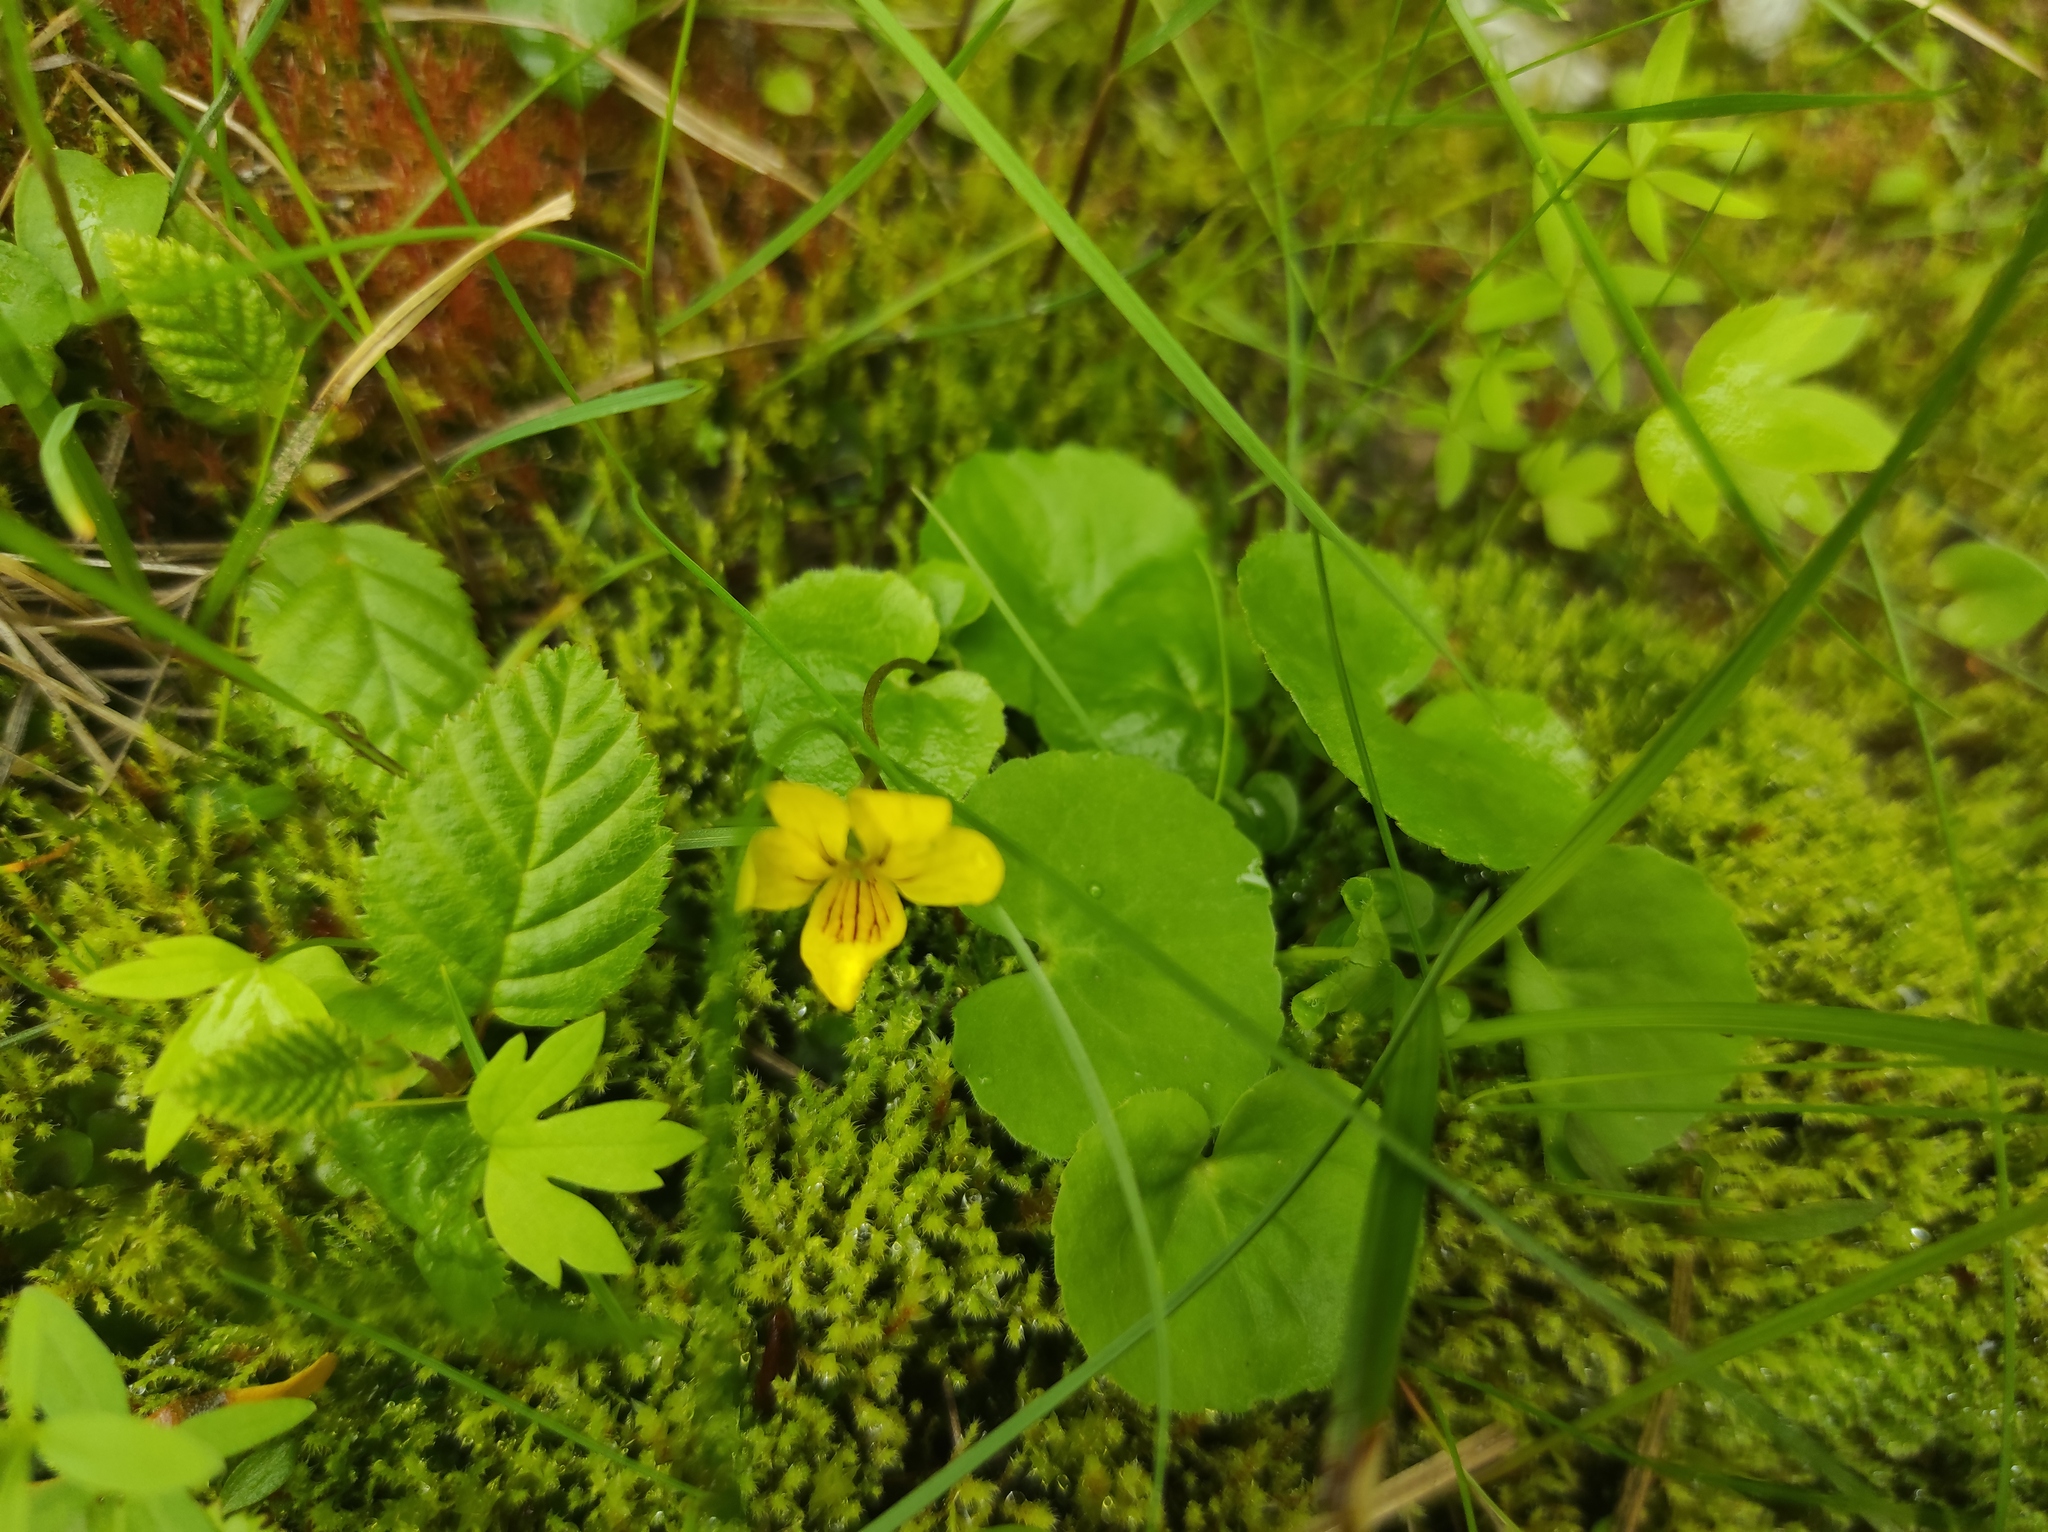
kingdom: Plantae
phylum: Tracheophyta
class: Magnoliopsida
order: Malpighiales
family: Violaceae
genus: Viola
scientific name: Viola biflora
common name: Alpine yellow violet
